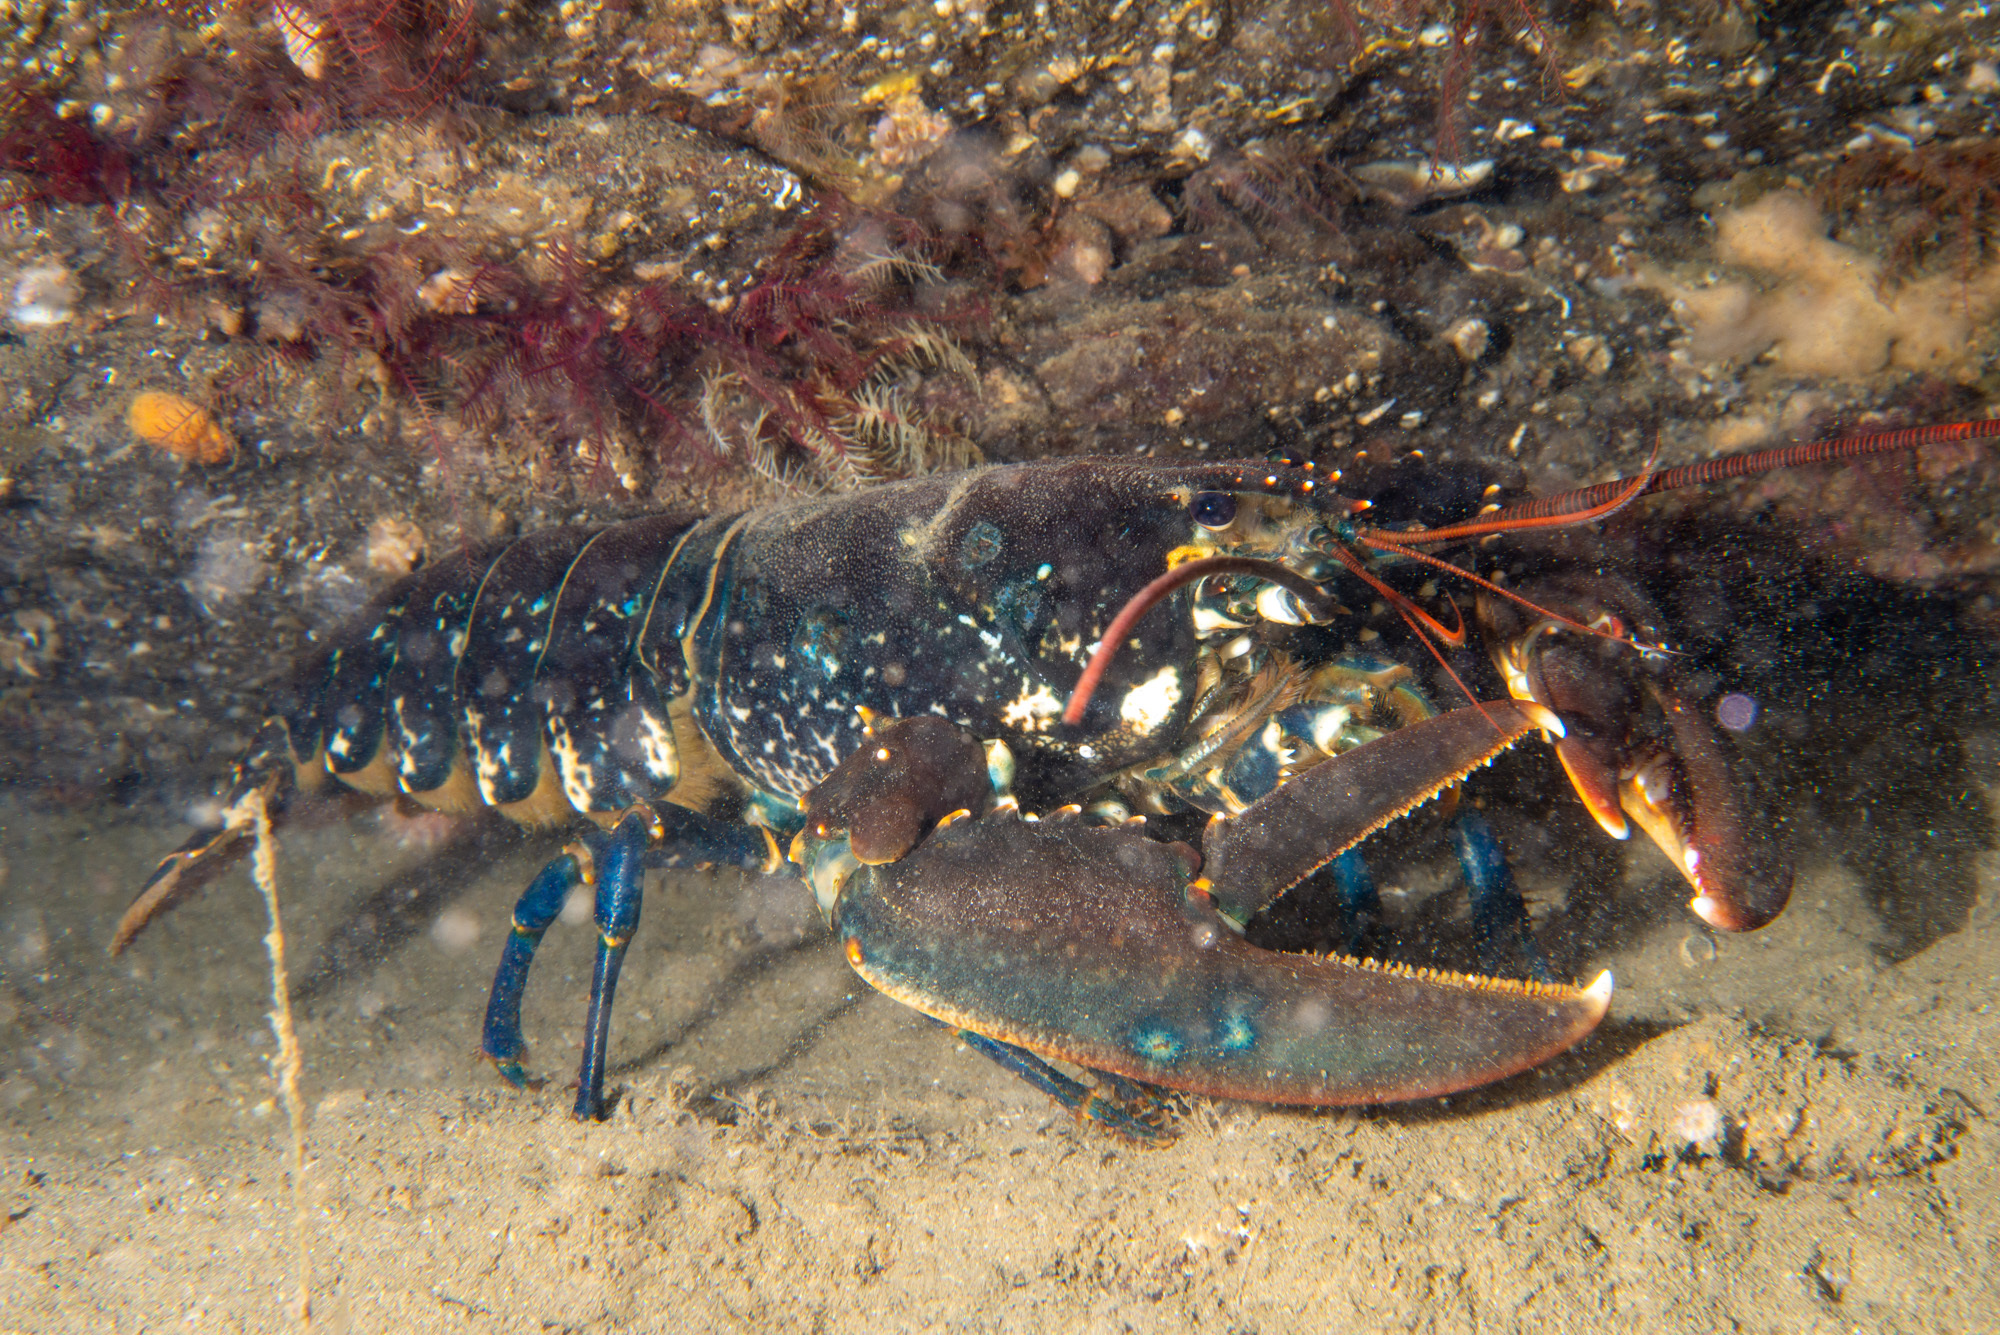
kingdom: Animalia
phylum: Arthropoda
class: Malacostraca
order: Decapoda
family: Nephropidae
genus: Homarus
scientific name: Homarus gammarus
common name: European lobster
